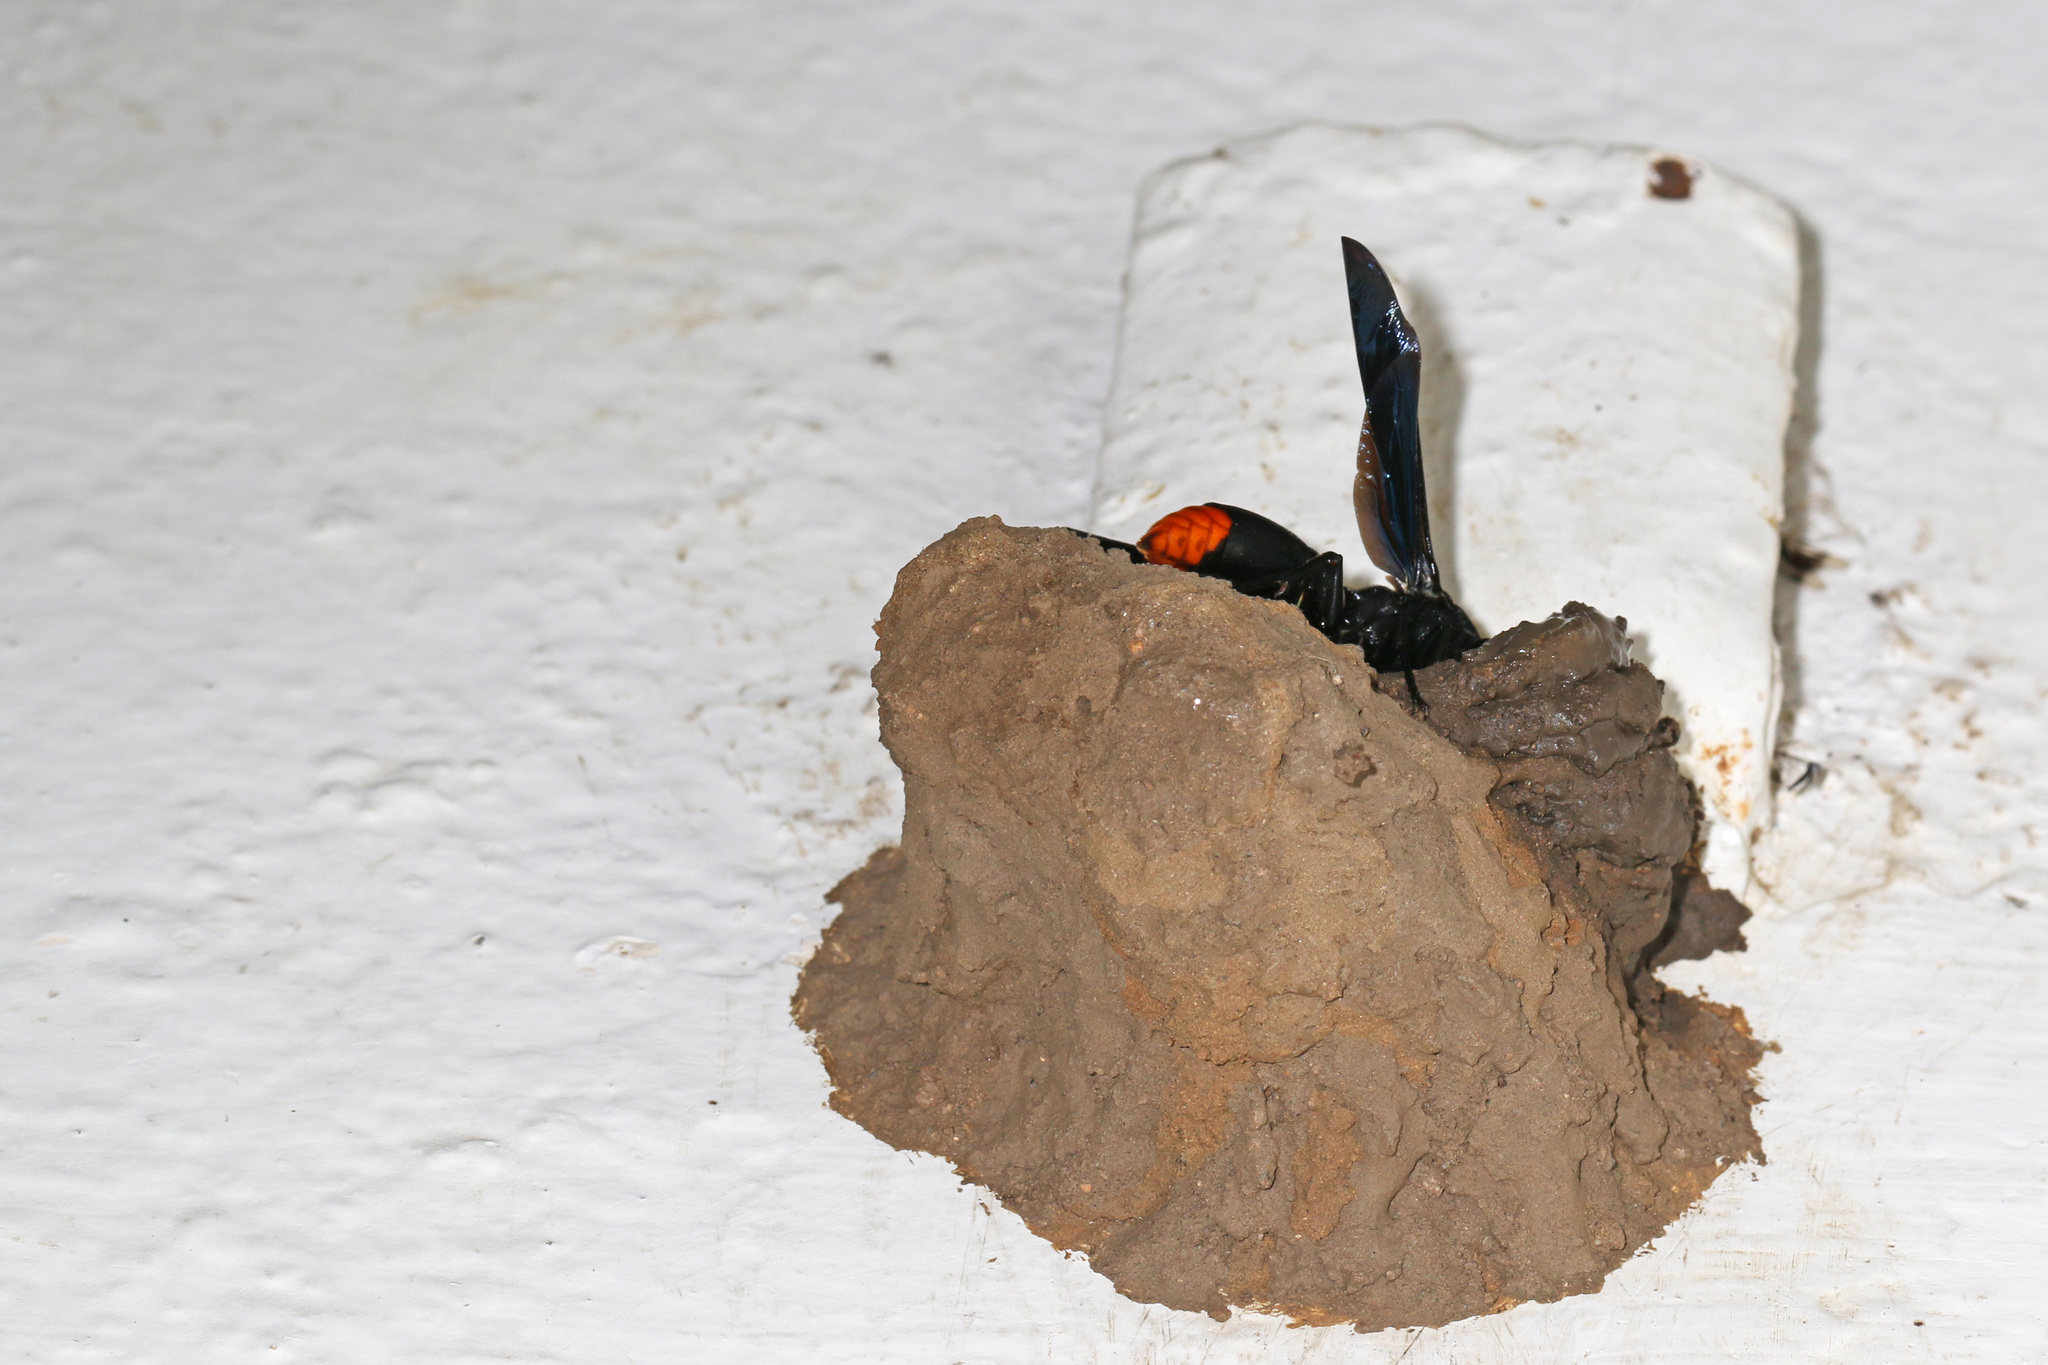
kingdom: Animalia
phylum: Arthropoda
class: Insecta
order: Hymenoptera
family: Eumenidae
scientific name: Eumenidae
